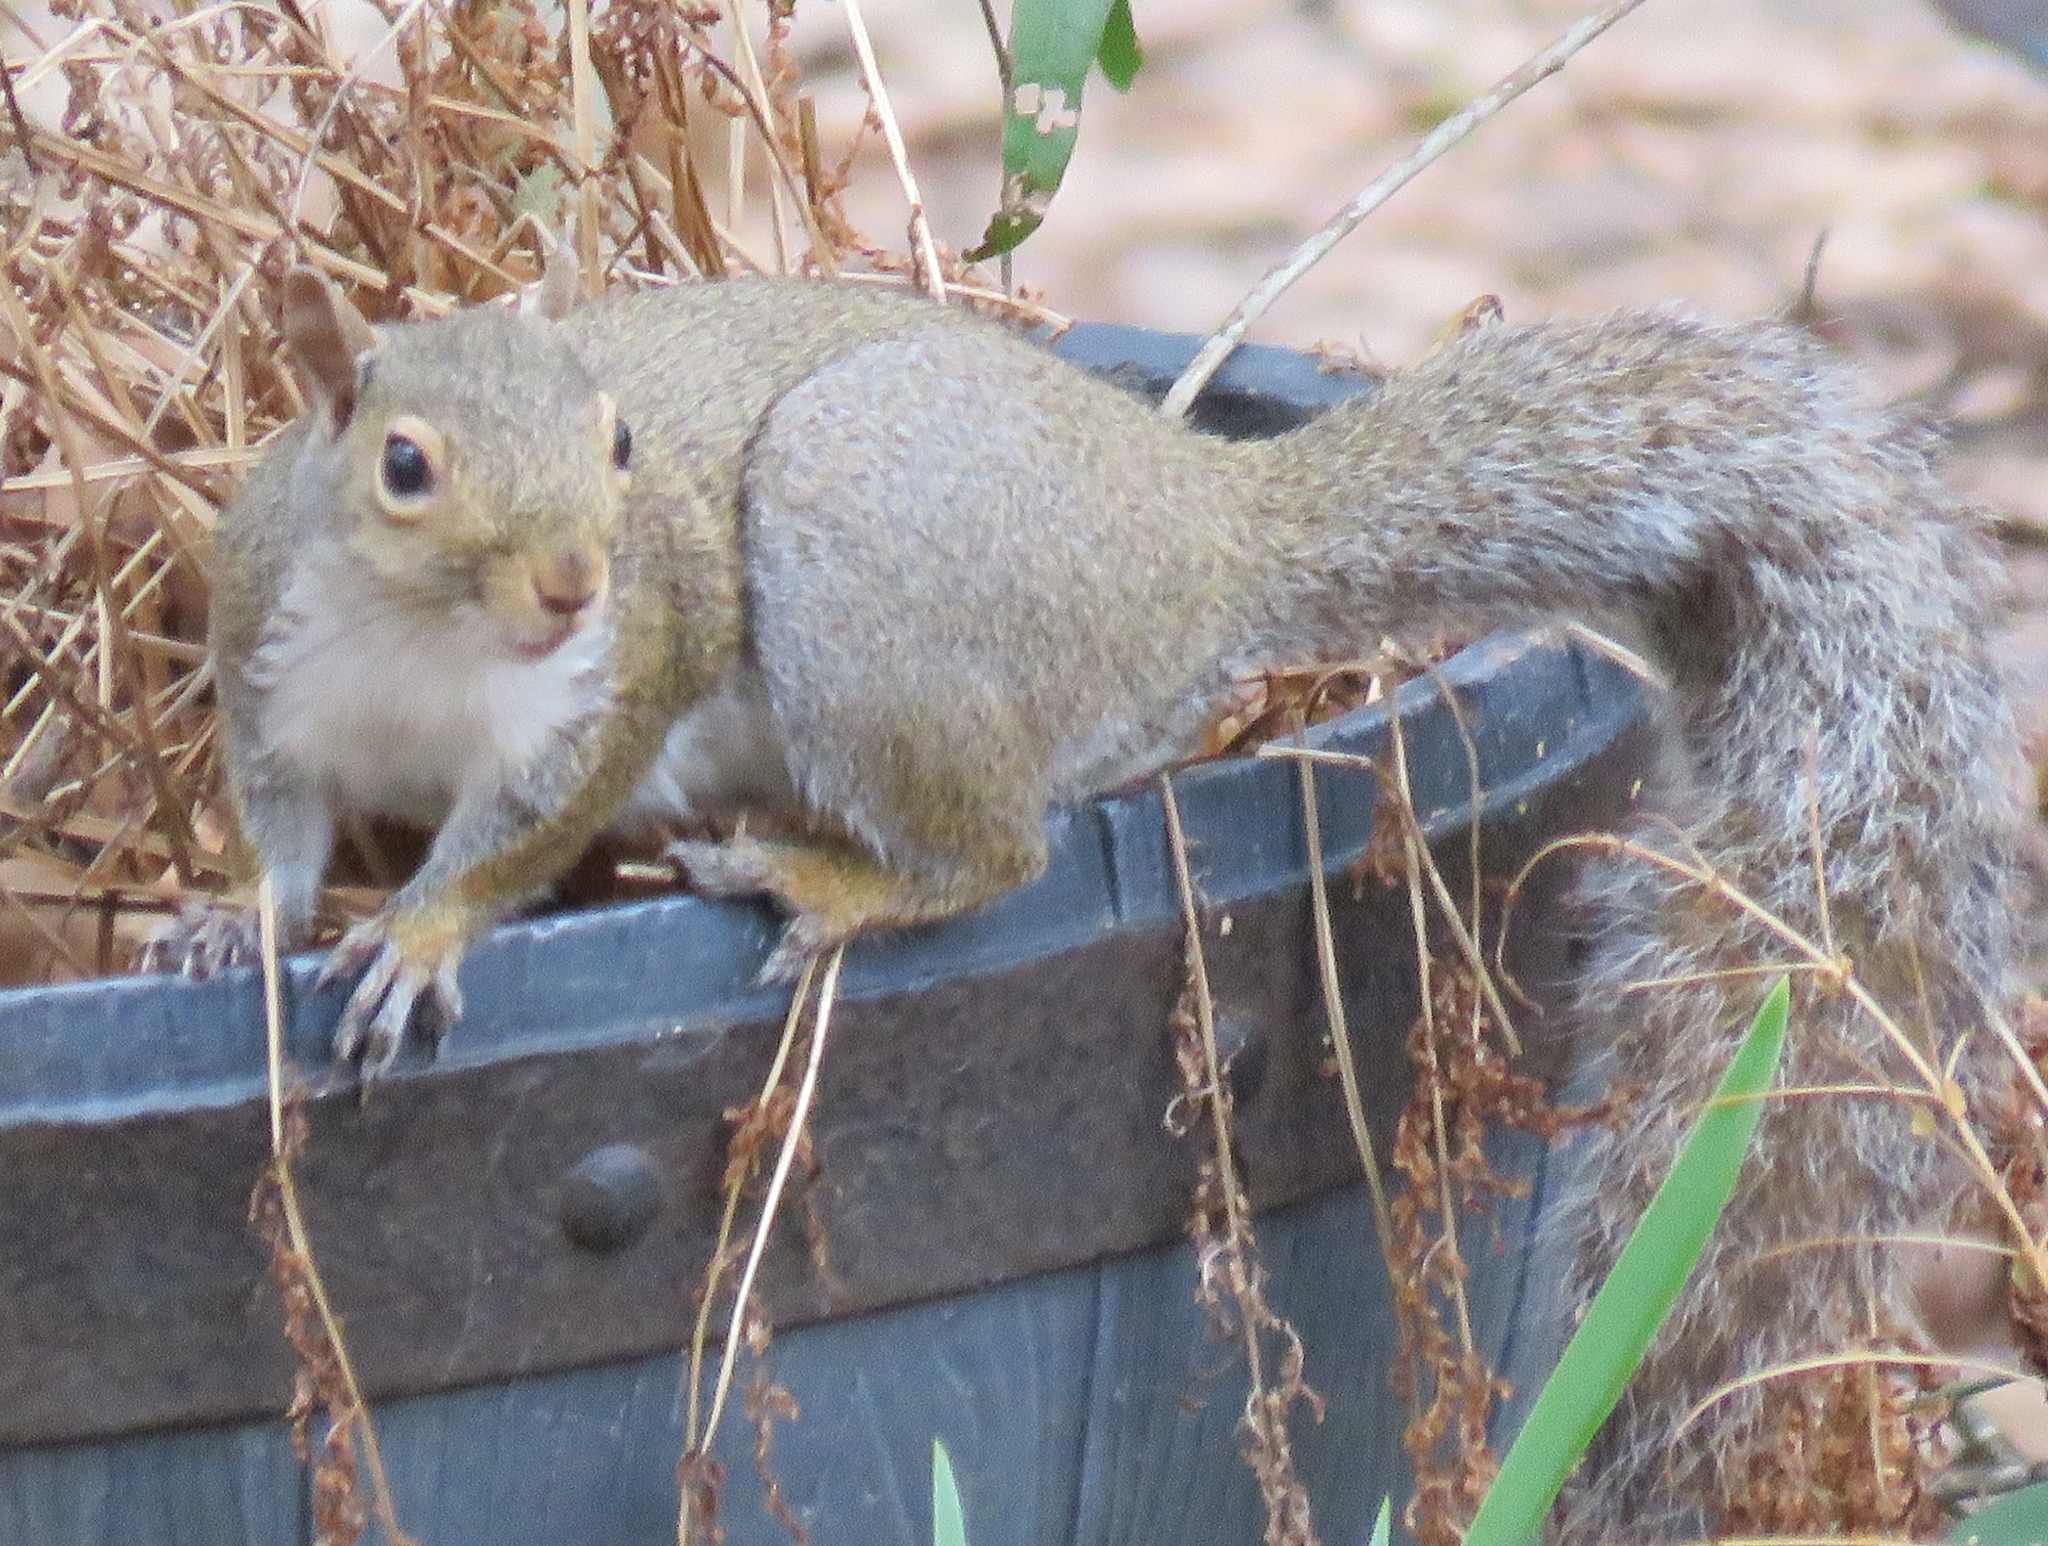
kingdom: Animalia
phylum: Chordata
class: Mammalia
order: Rodentia
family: Sciuridae
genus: Sciurus
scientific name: Sciurus carolinensis
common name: Eastern gray squirrel
